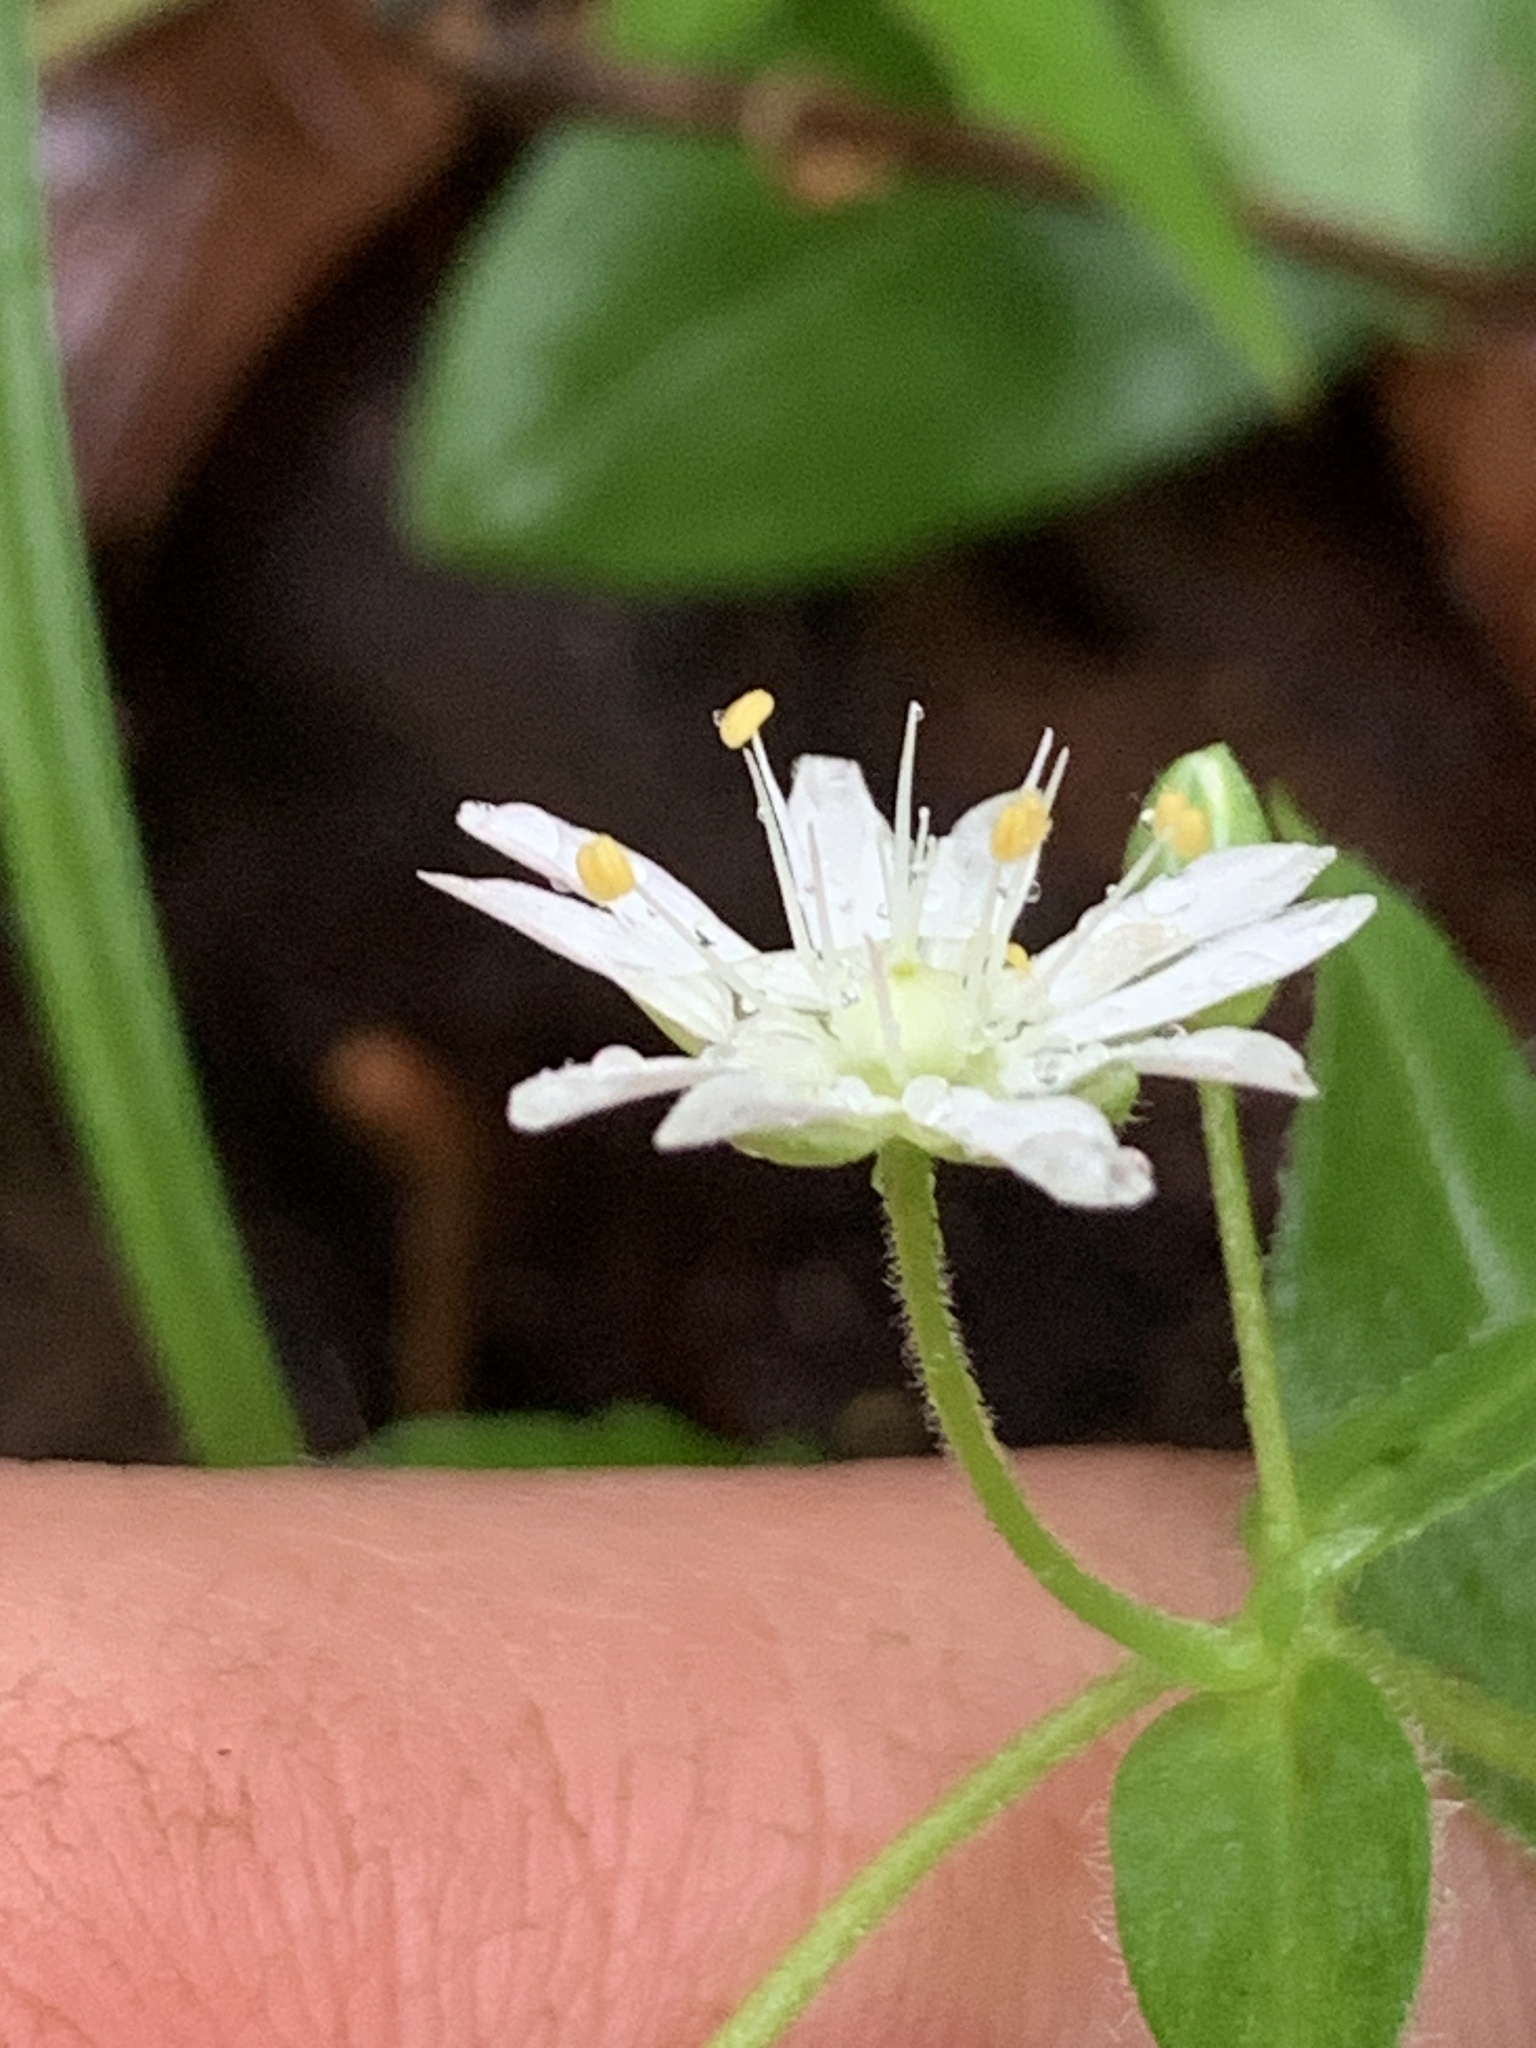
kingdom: Plantae
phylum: Tracheophyta
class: Magnoliopsida
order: Caryophyllales
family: Caryophyllaceae
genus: Stellaria
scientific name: Stellaria pubera
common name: Star chickweed
